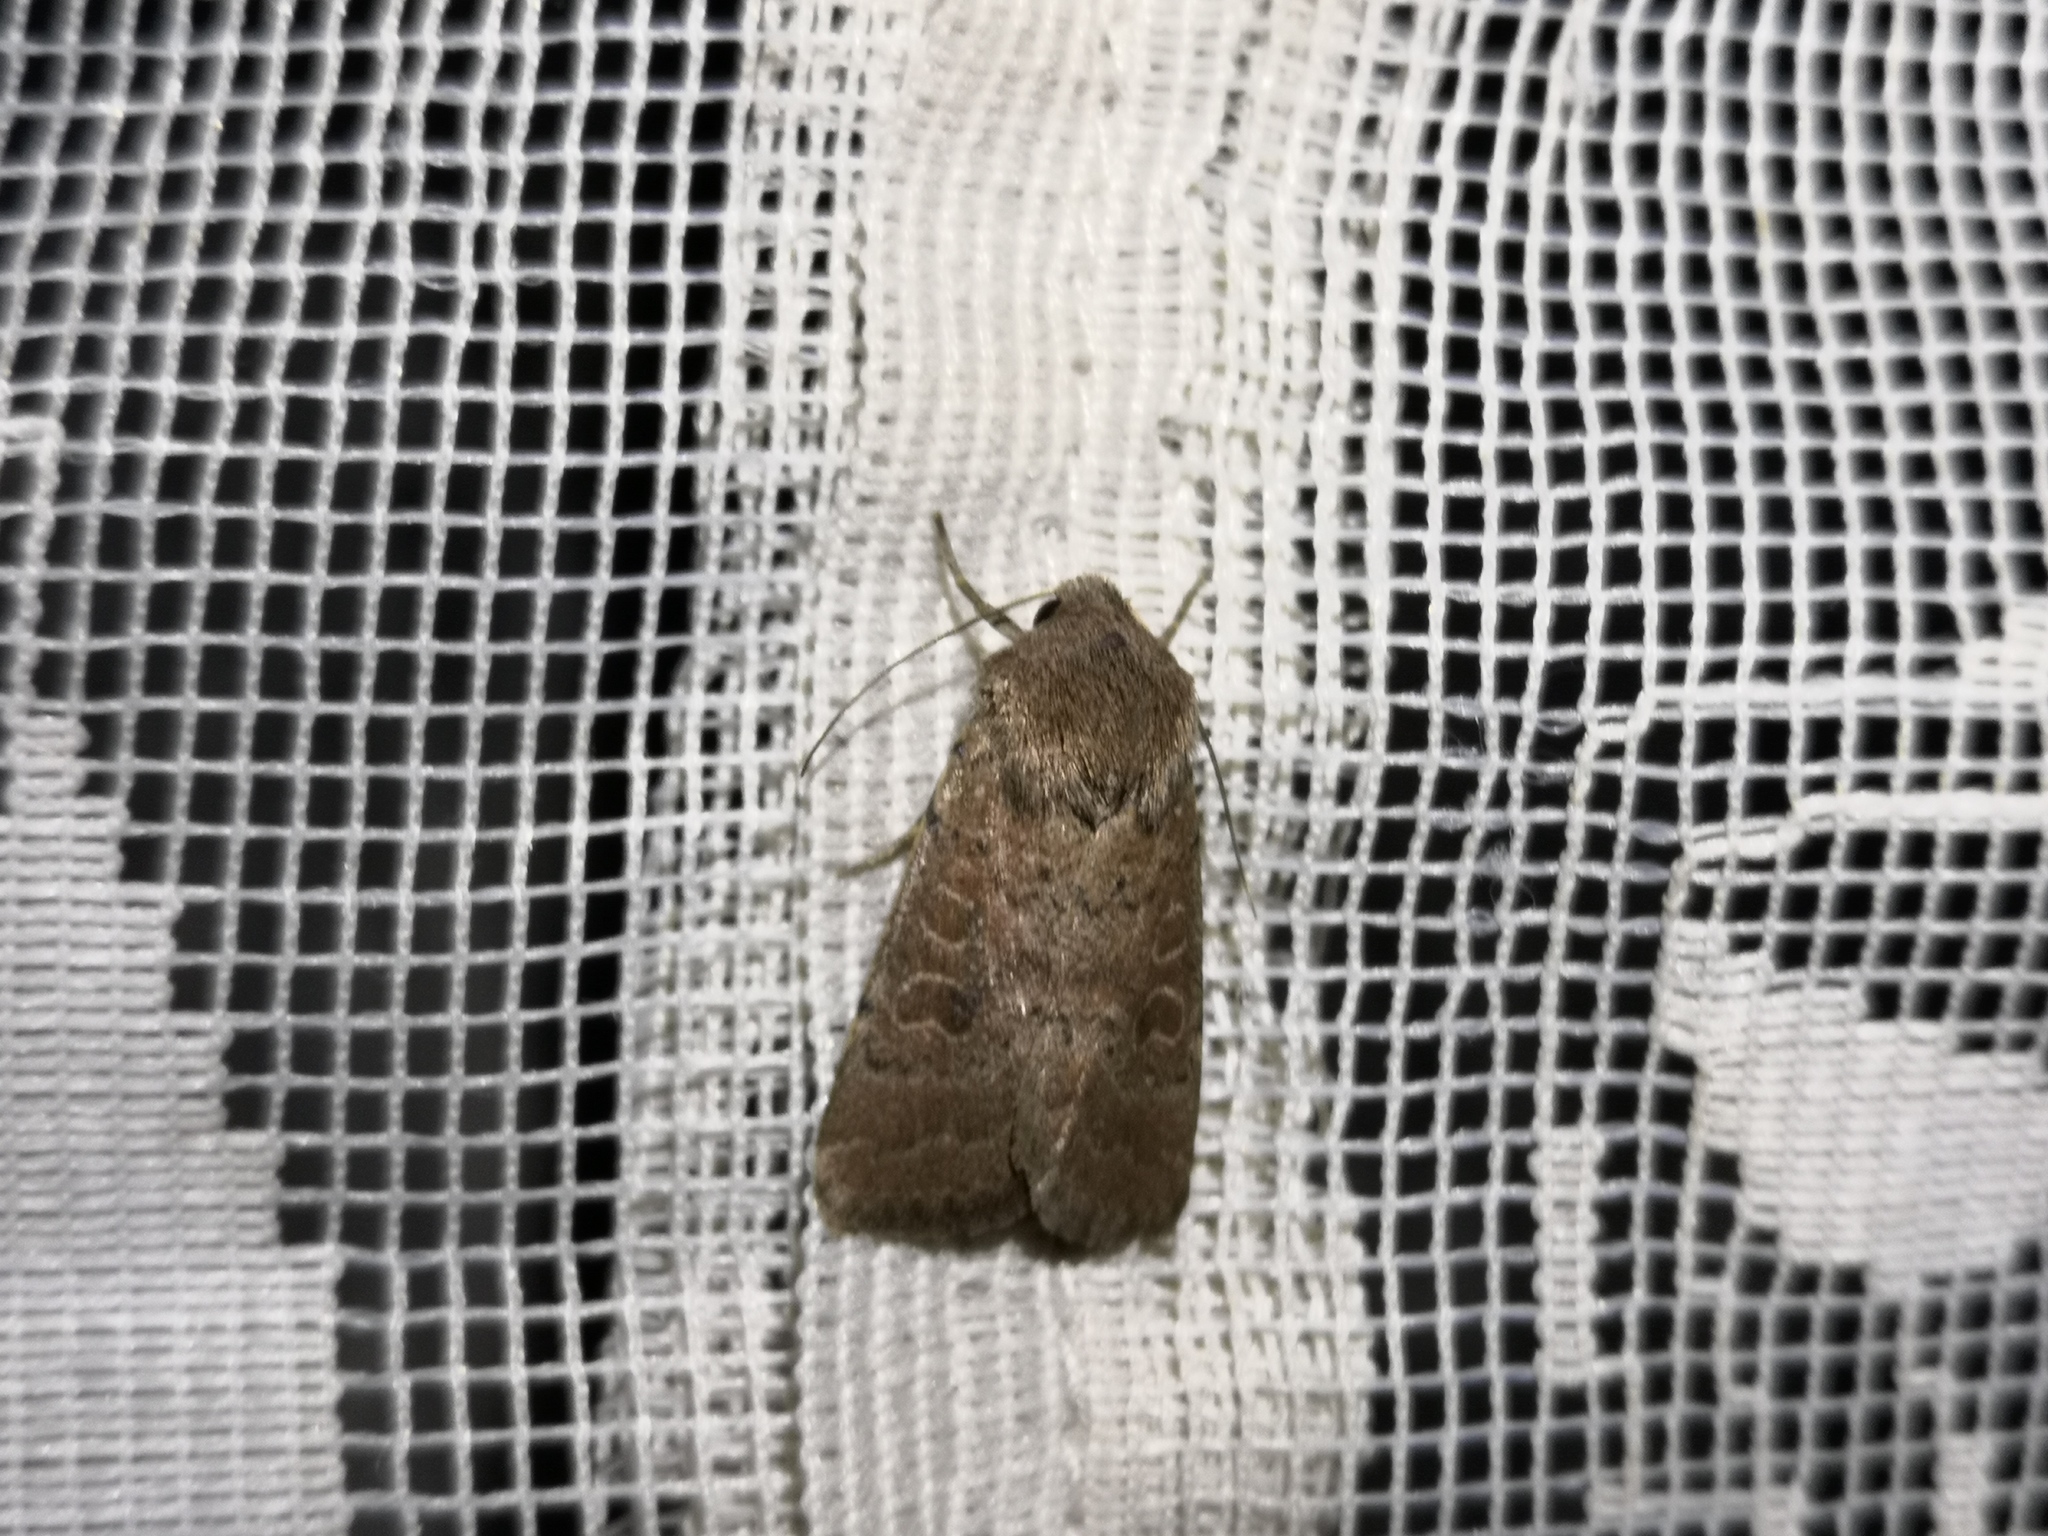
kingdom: Animalia
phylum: Arthropoda
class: Insecta
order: Lepidoptera
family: Noctuidae
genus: Hoplodrina
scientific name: Hoplodrina blanda
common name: Rustic
